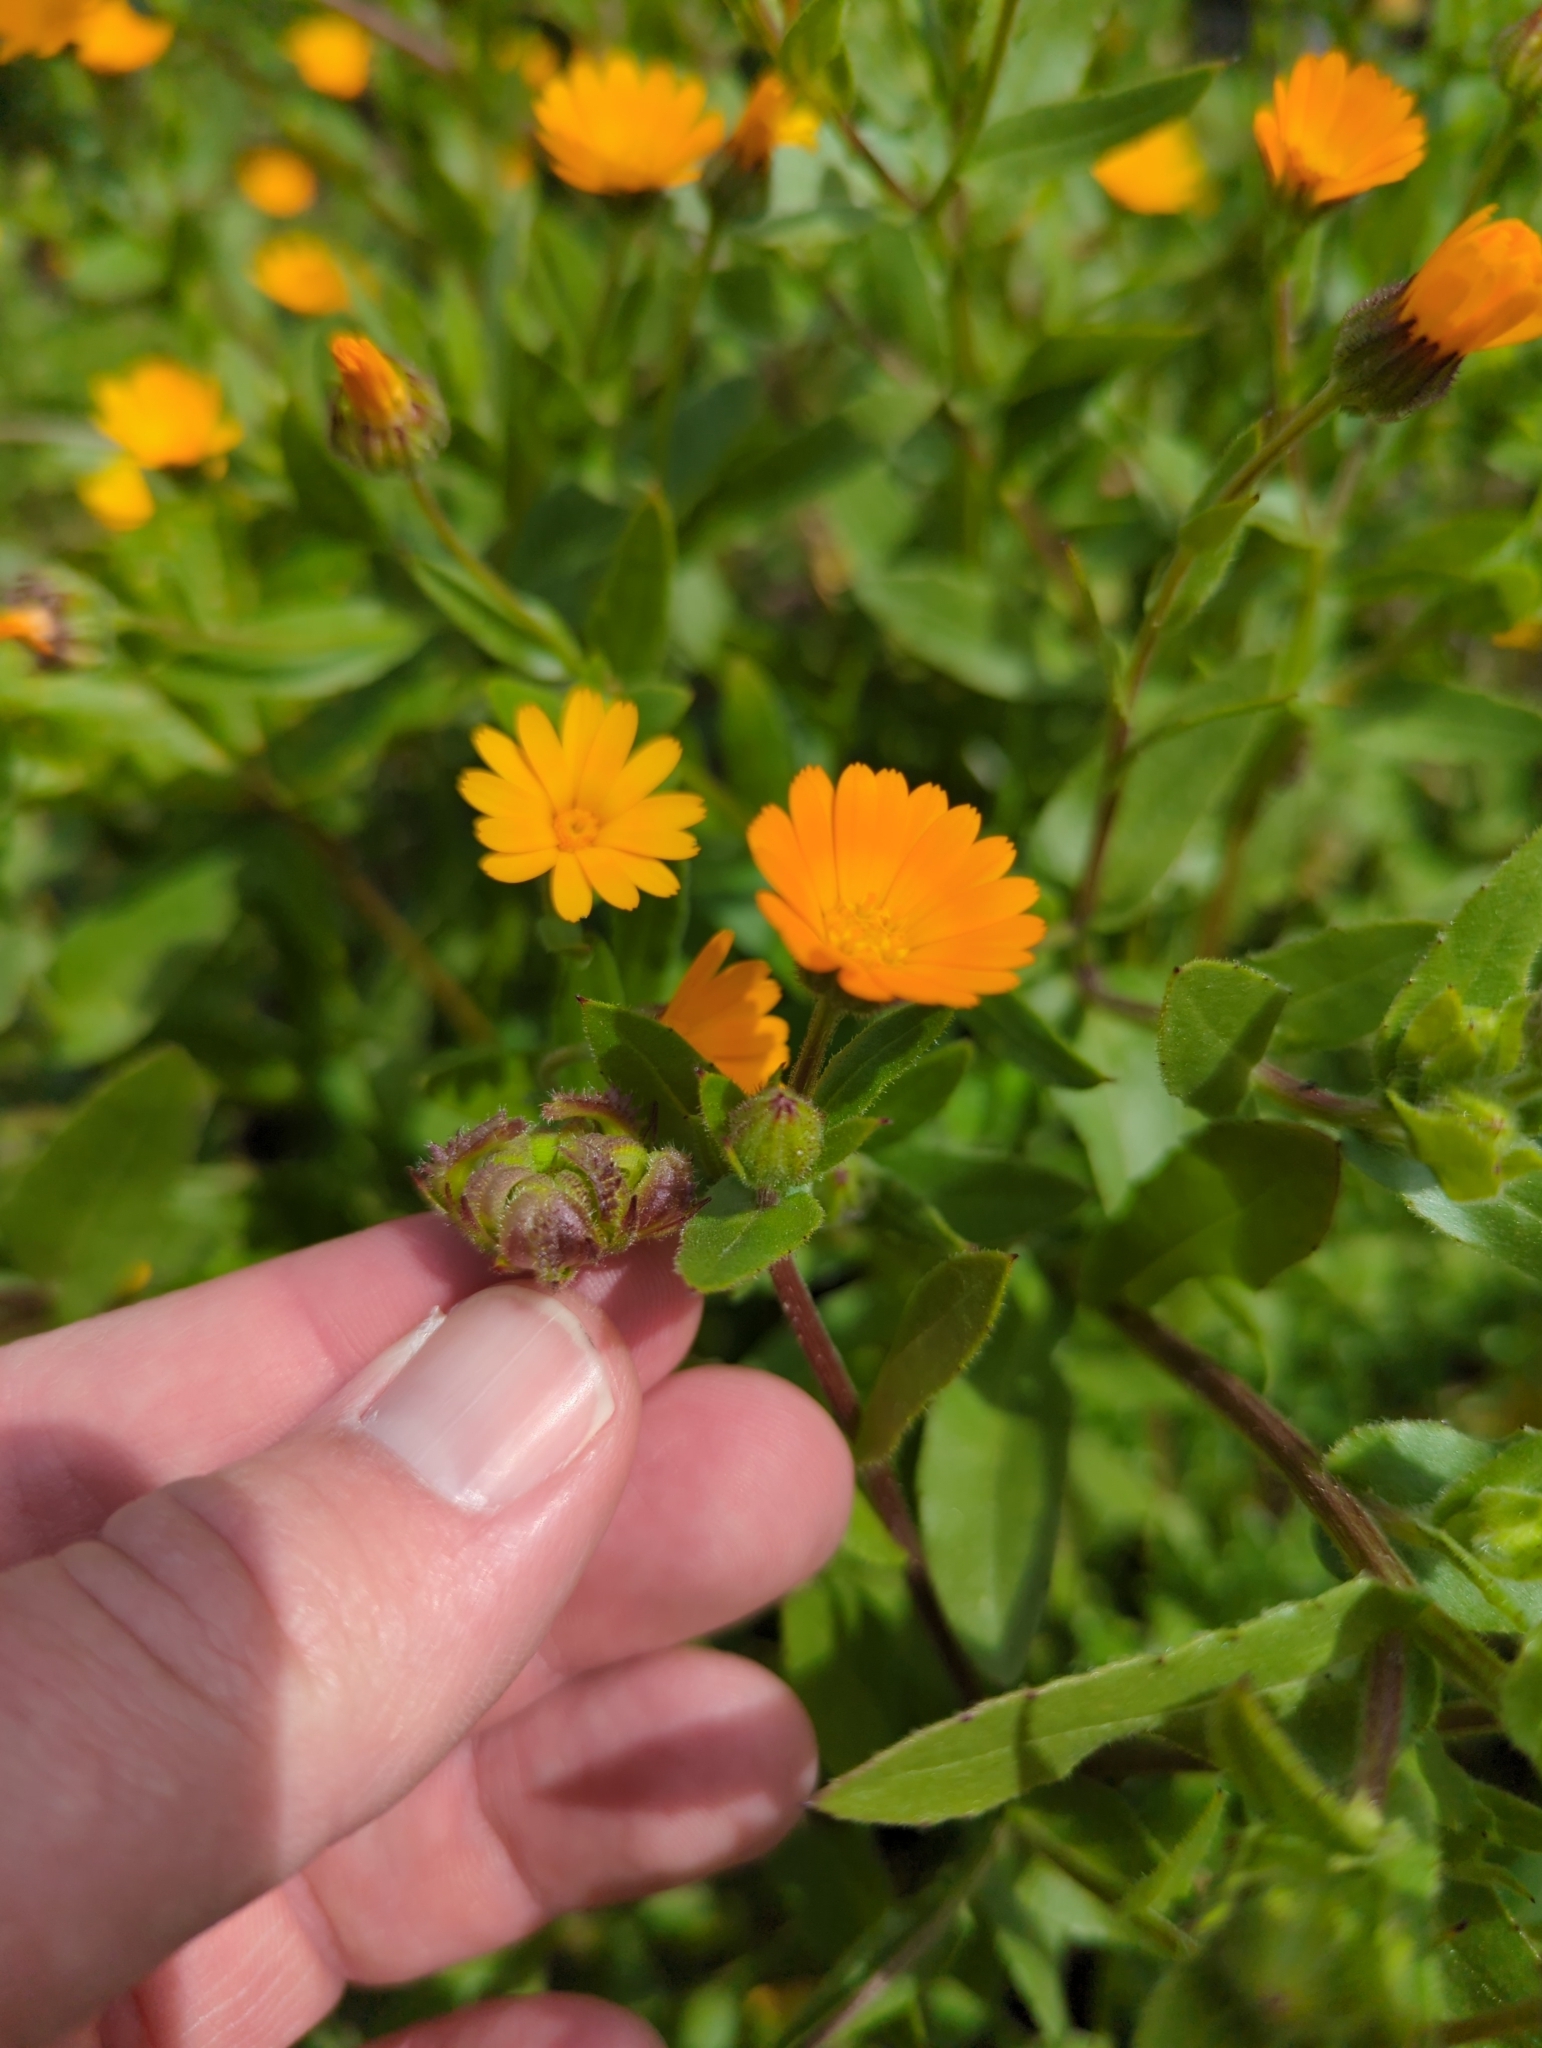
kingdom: Plantae
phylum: Tracheophyta
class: Magnoliopsida
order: Asterales
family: Asteraceae
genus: Calendula
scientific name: Calendula arvensis
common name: Field marigold
